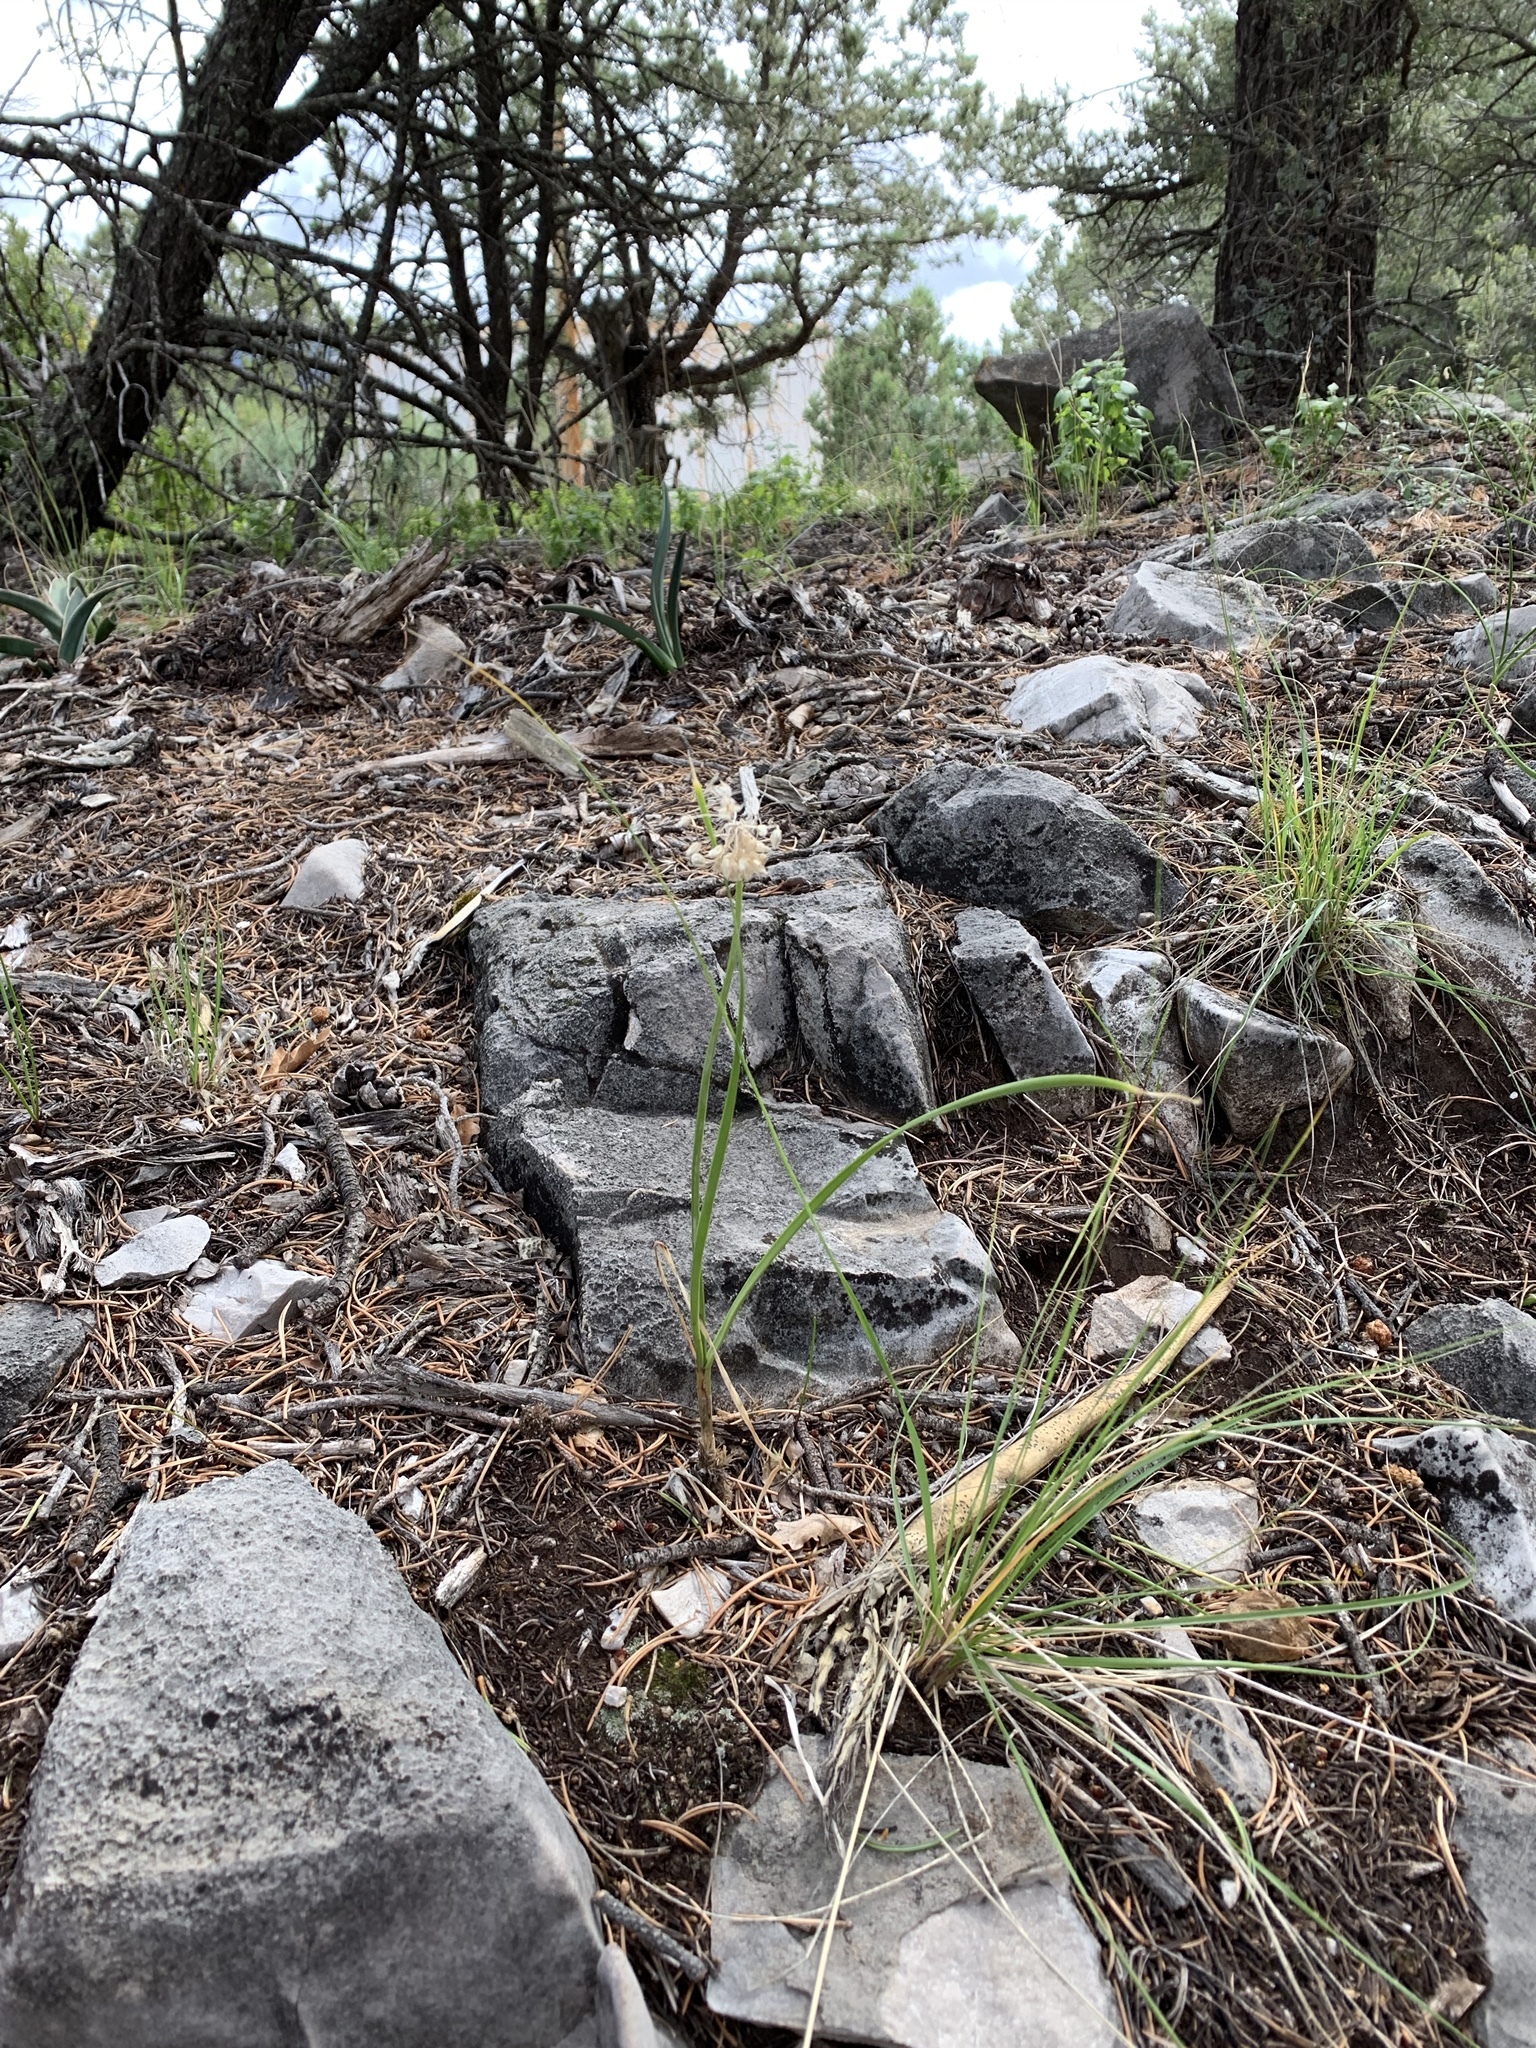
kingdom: Plantae
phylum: Tracheophyta
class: Liliopsida
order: Asparagales
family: Amaryllidaceae
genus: Allium
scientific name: Allium cernuum
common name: Nodding onion
